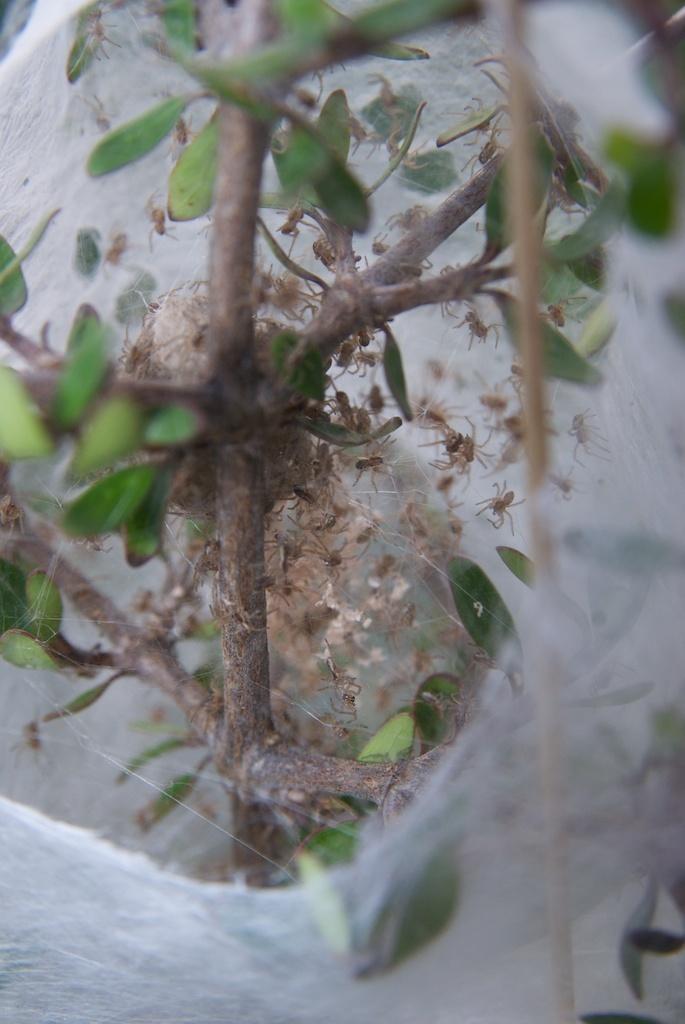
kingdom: Animalia
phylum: Arthropoda
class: Arachnida
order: Araneae
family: Pisauridae
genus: Dolomedes
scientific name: Dolomedes minor
